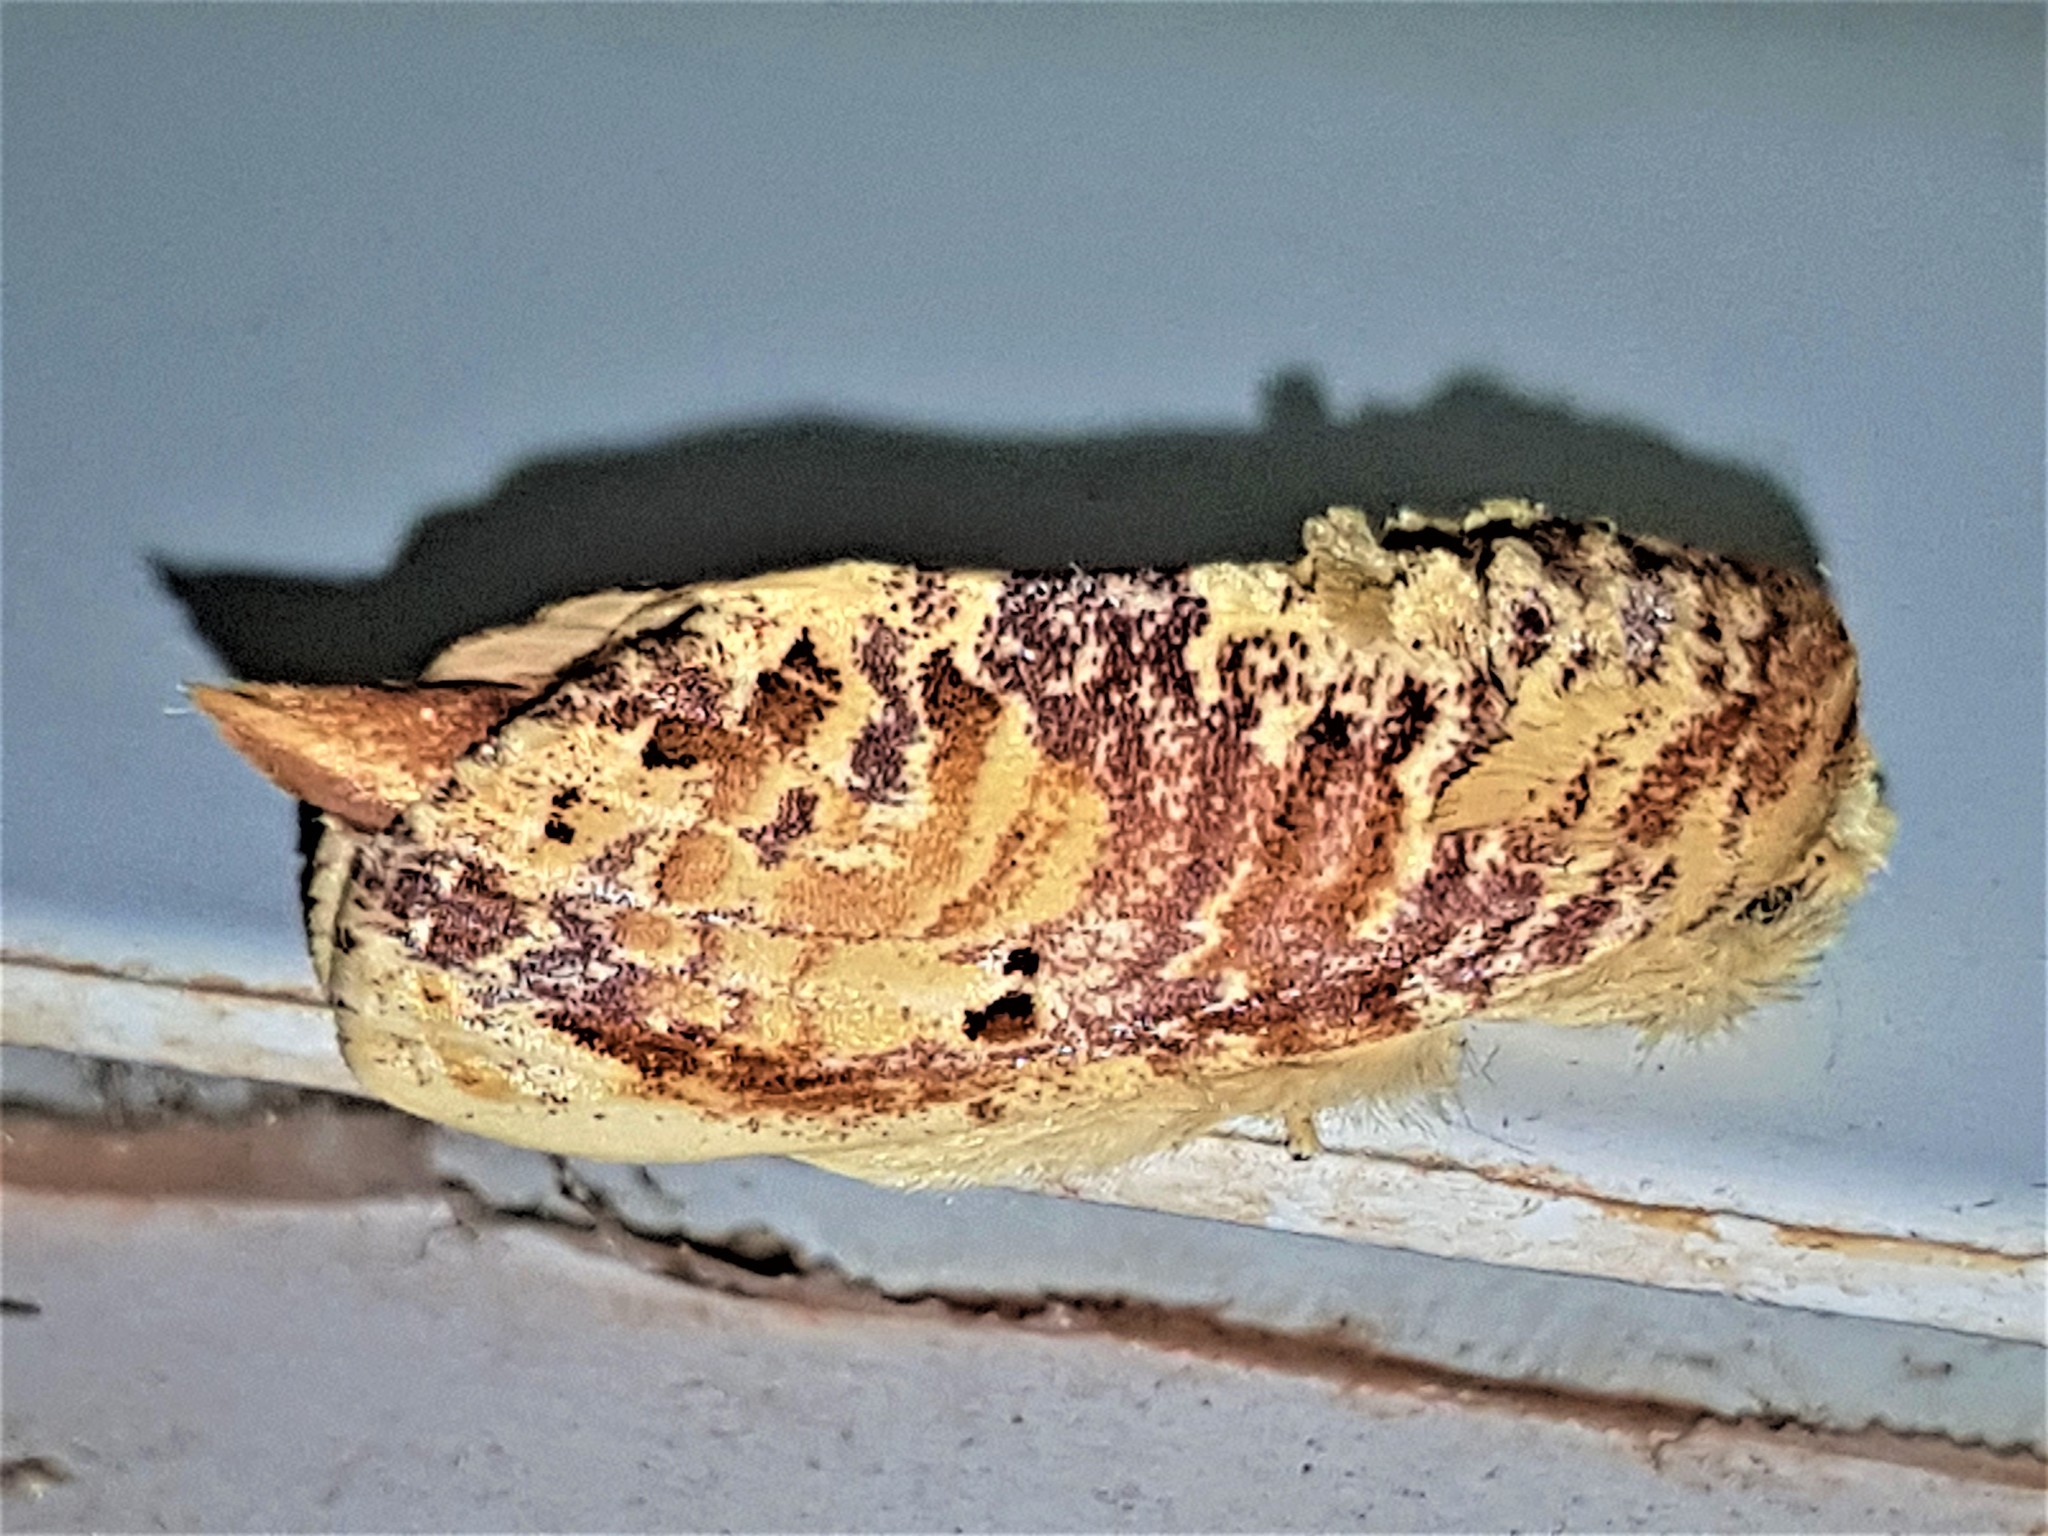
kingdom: Animalia
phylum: Arthropoda
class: Insecta
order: Lepidoptera
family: Notodontidae
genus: Magava
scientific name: Magava multilinea
